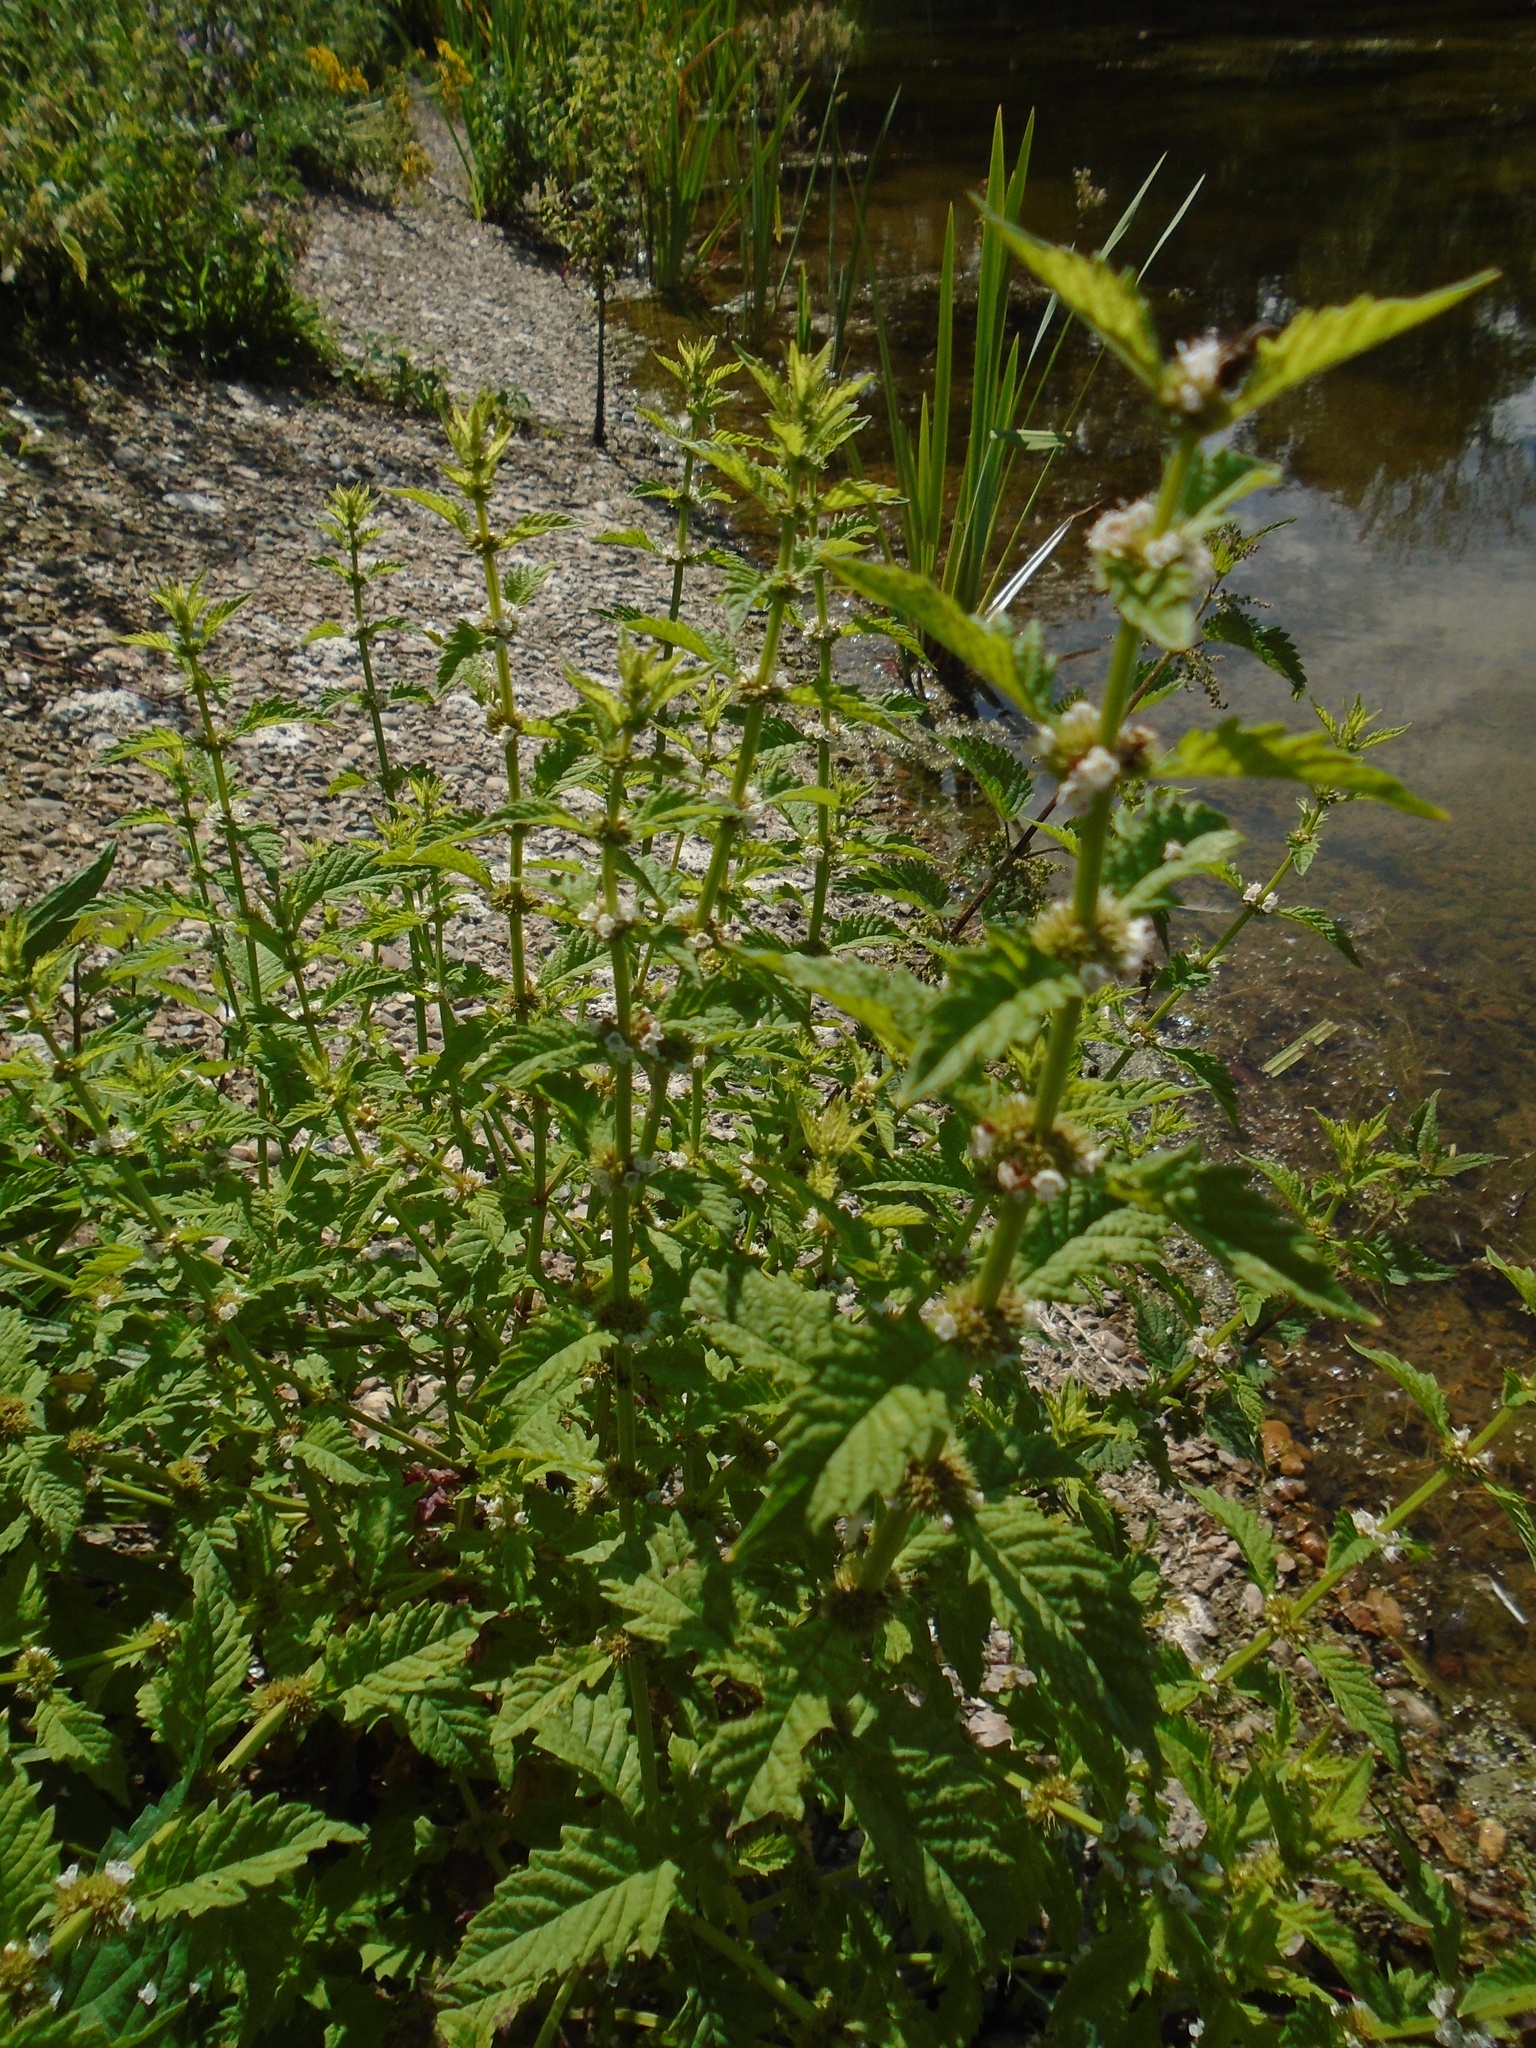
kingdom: Plantae
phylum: Tracheophyta
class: Magnoliopsida
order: Lamiales
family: Lamiaceae
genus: Lycopus
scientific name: Lycopus europaeus
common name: European bugleweed
